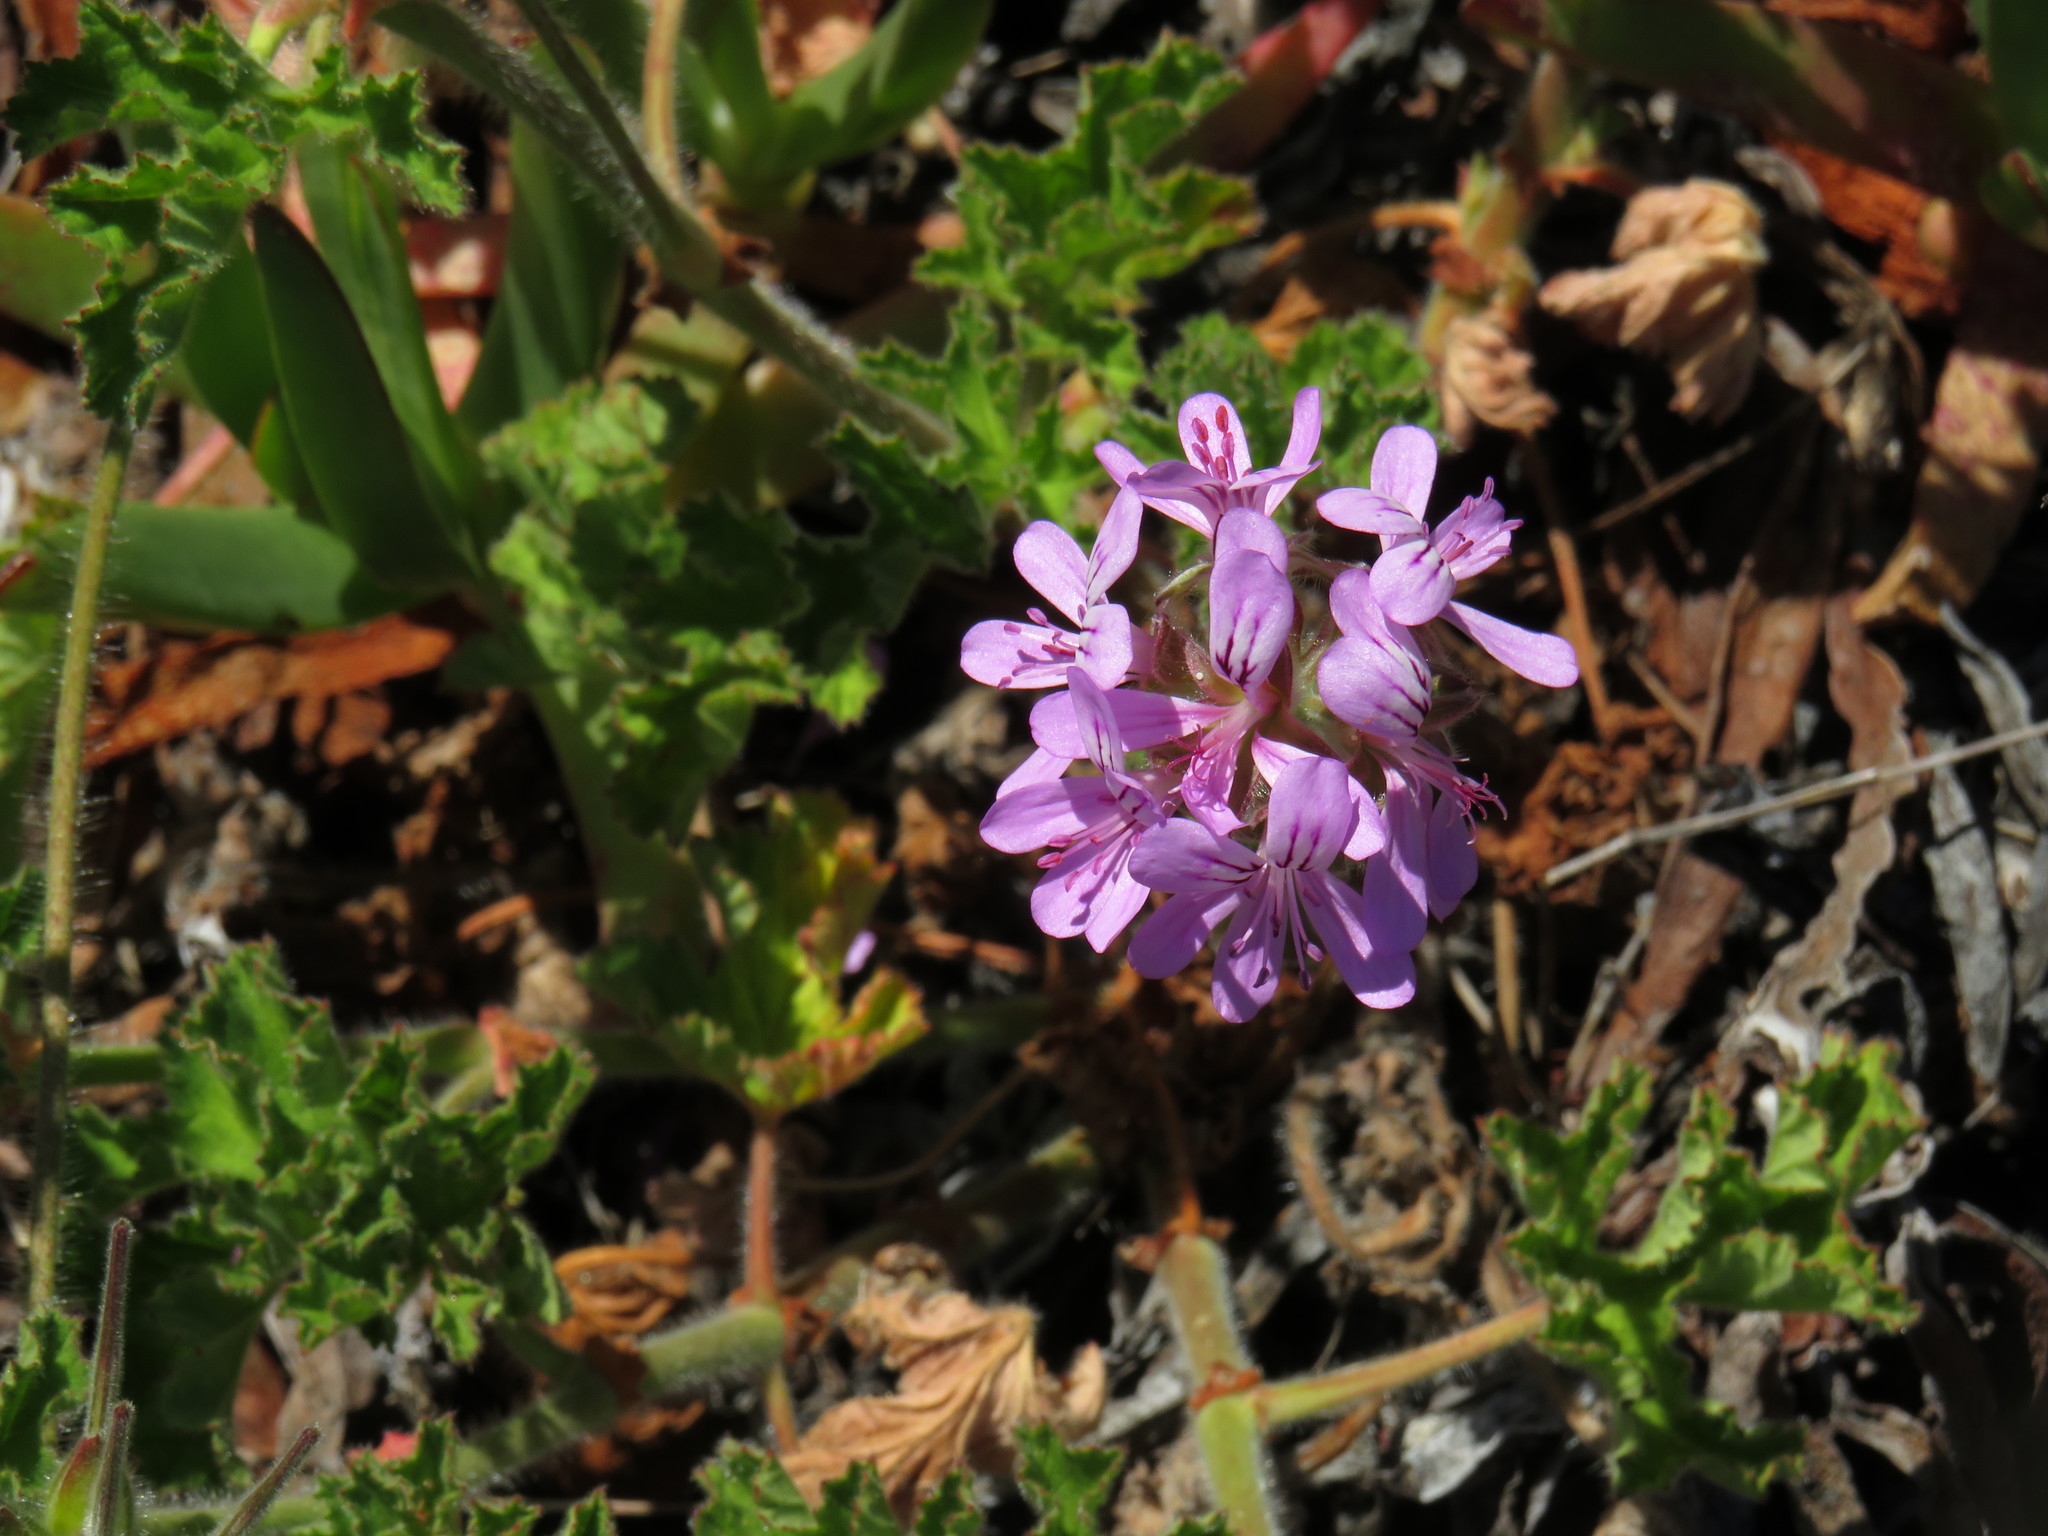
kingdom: Plantae
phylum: Tracheophyta
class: Magnoliopsida
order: Geraniales
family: Geraniaceae
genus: Pelargonium
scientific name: Pelargonium capitatum
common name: Rose scented geranium
